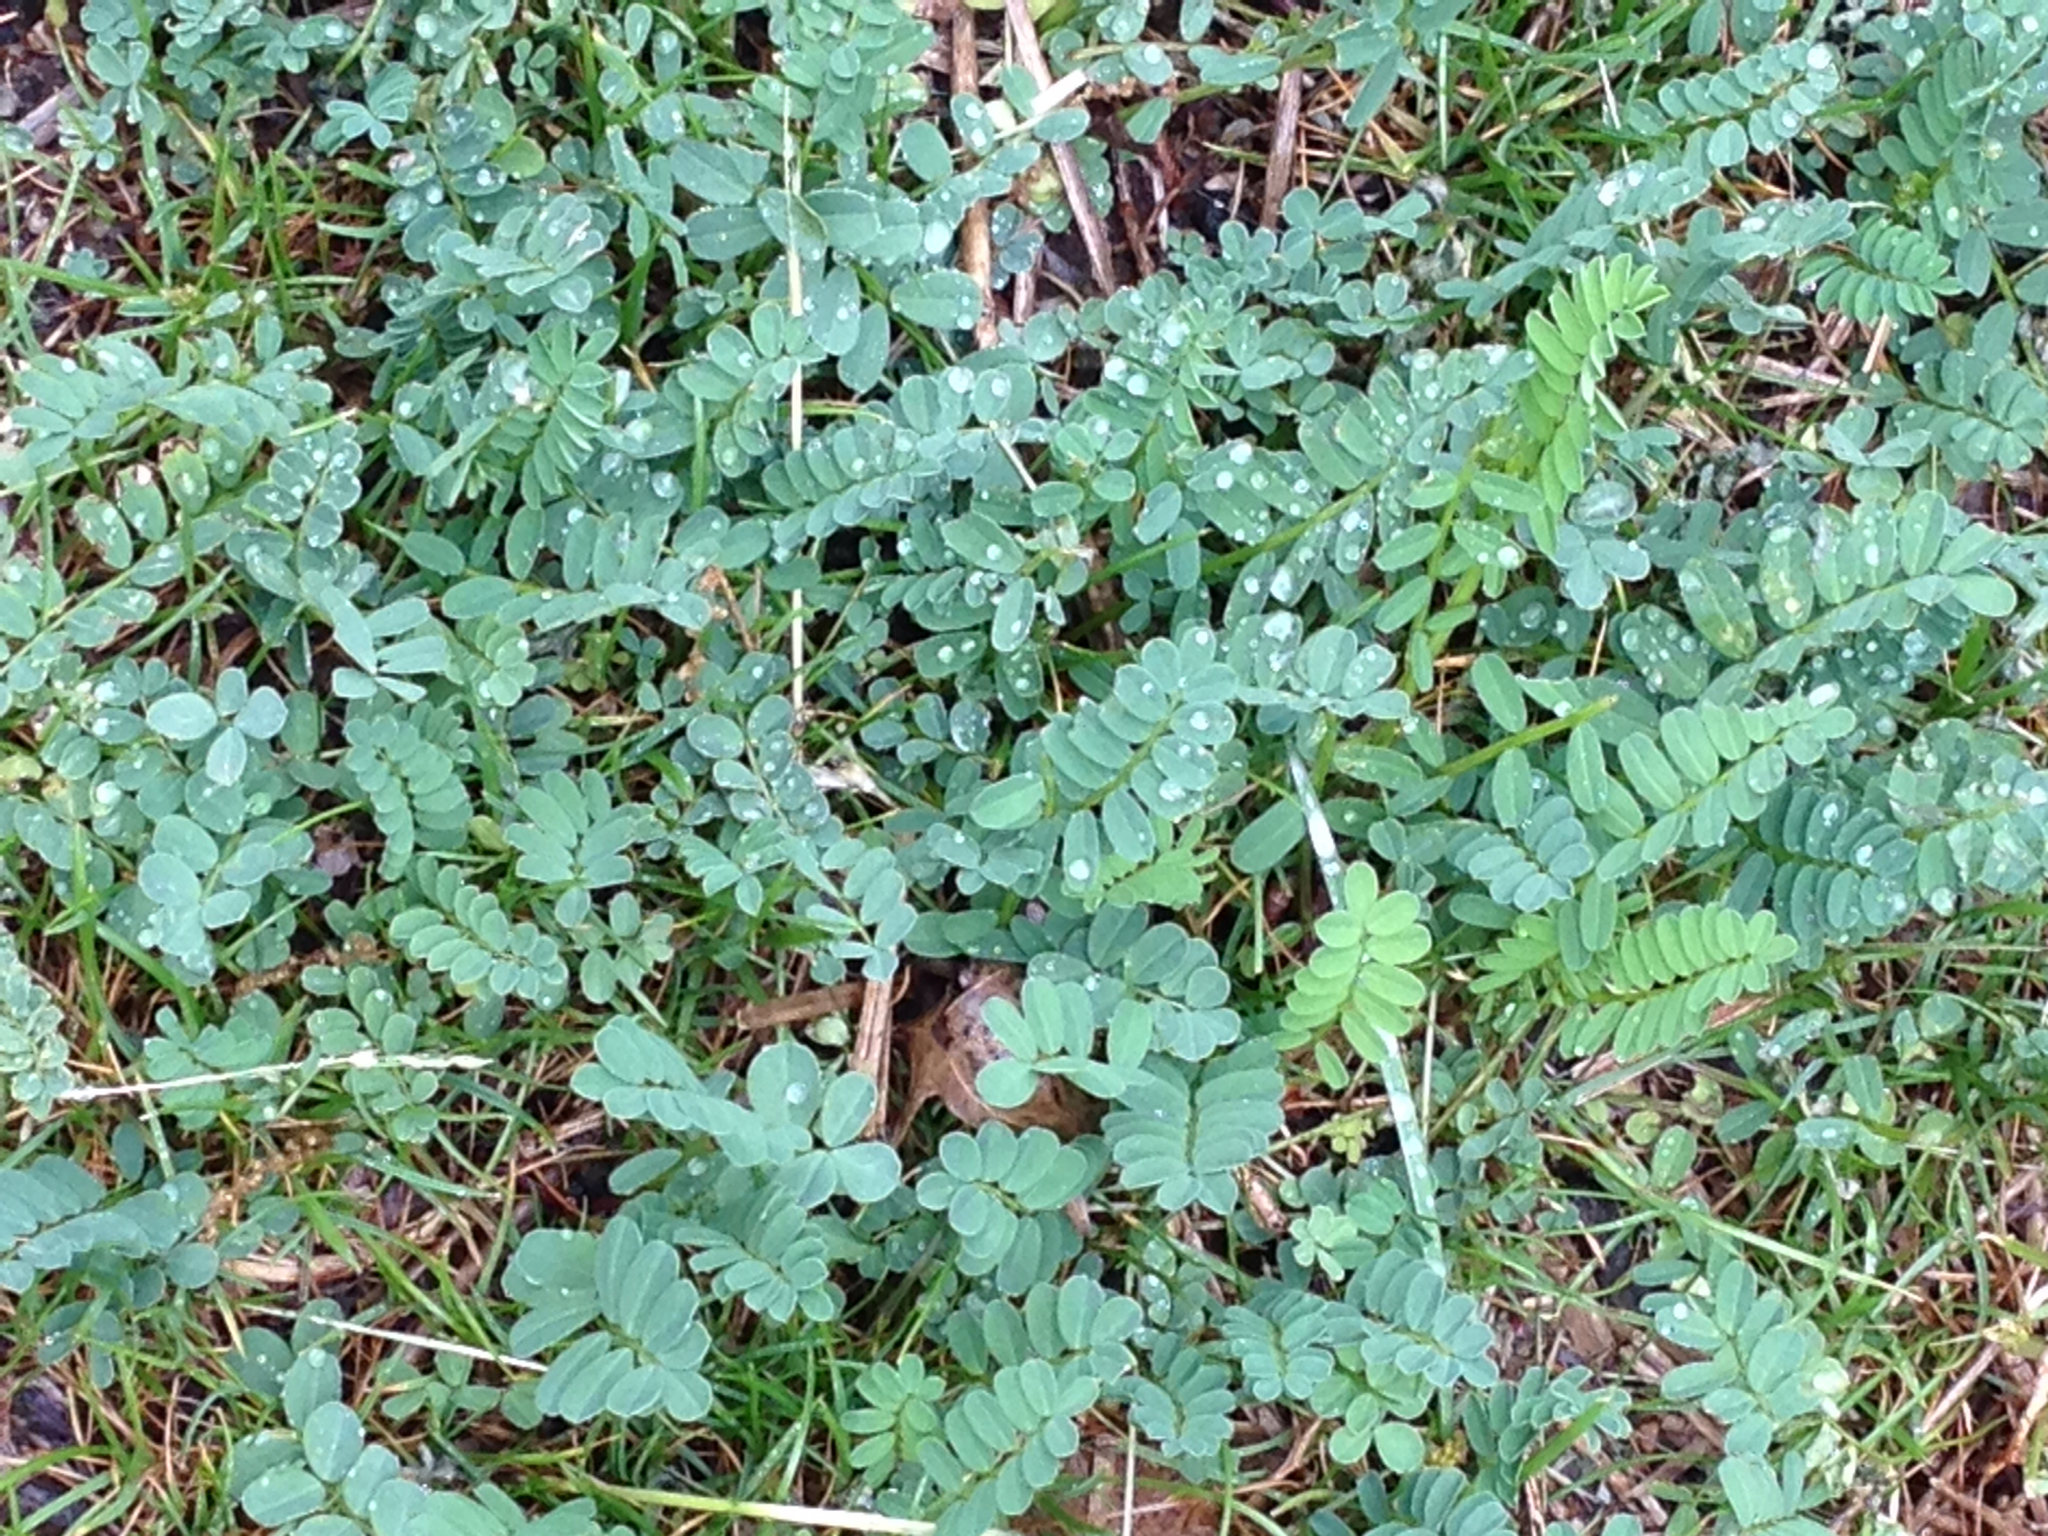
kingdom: Plantae
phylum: Tracheophyta
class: Magnoliopsida
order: Fabales
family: Fabaceae
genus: Coronilla
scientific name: Coronilla varia
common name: Crownvetch
